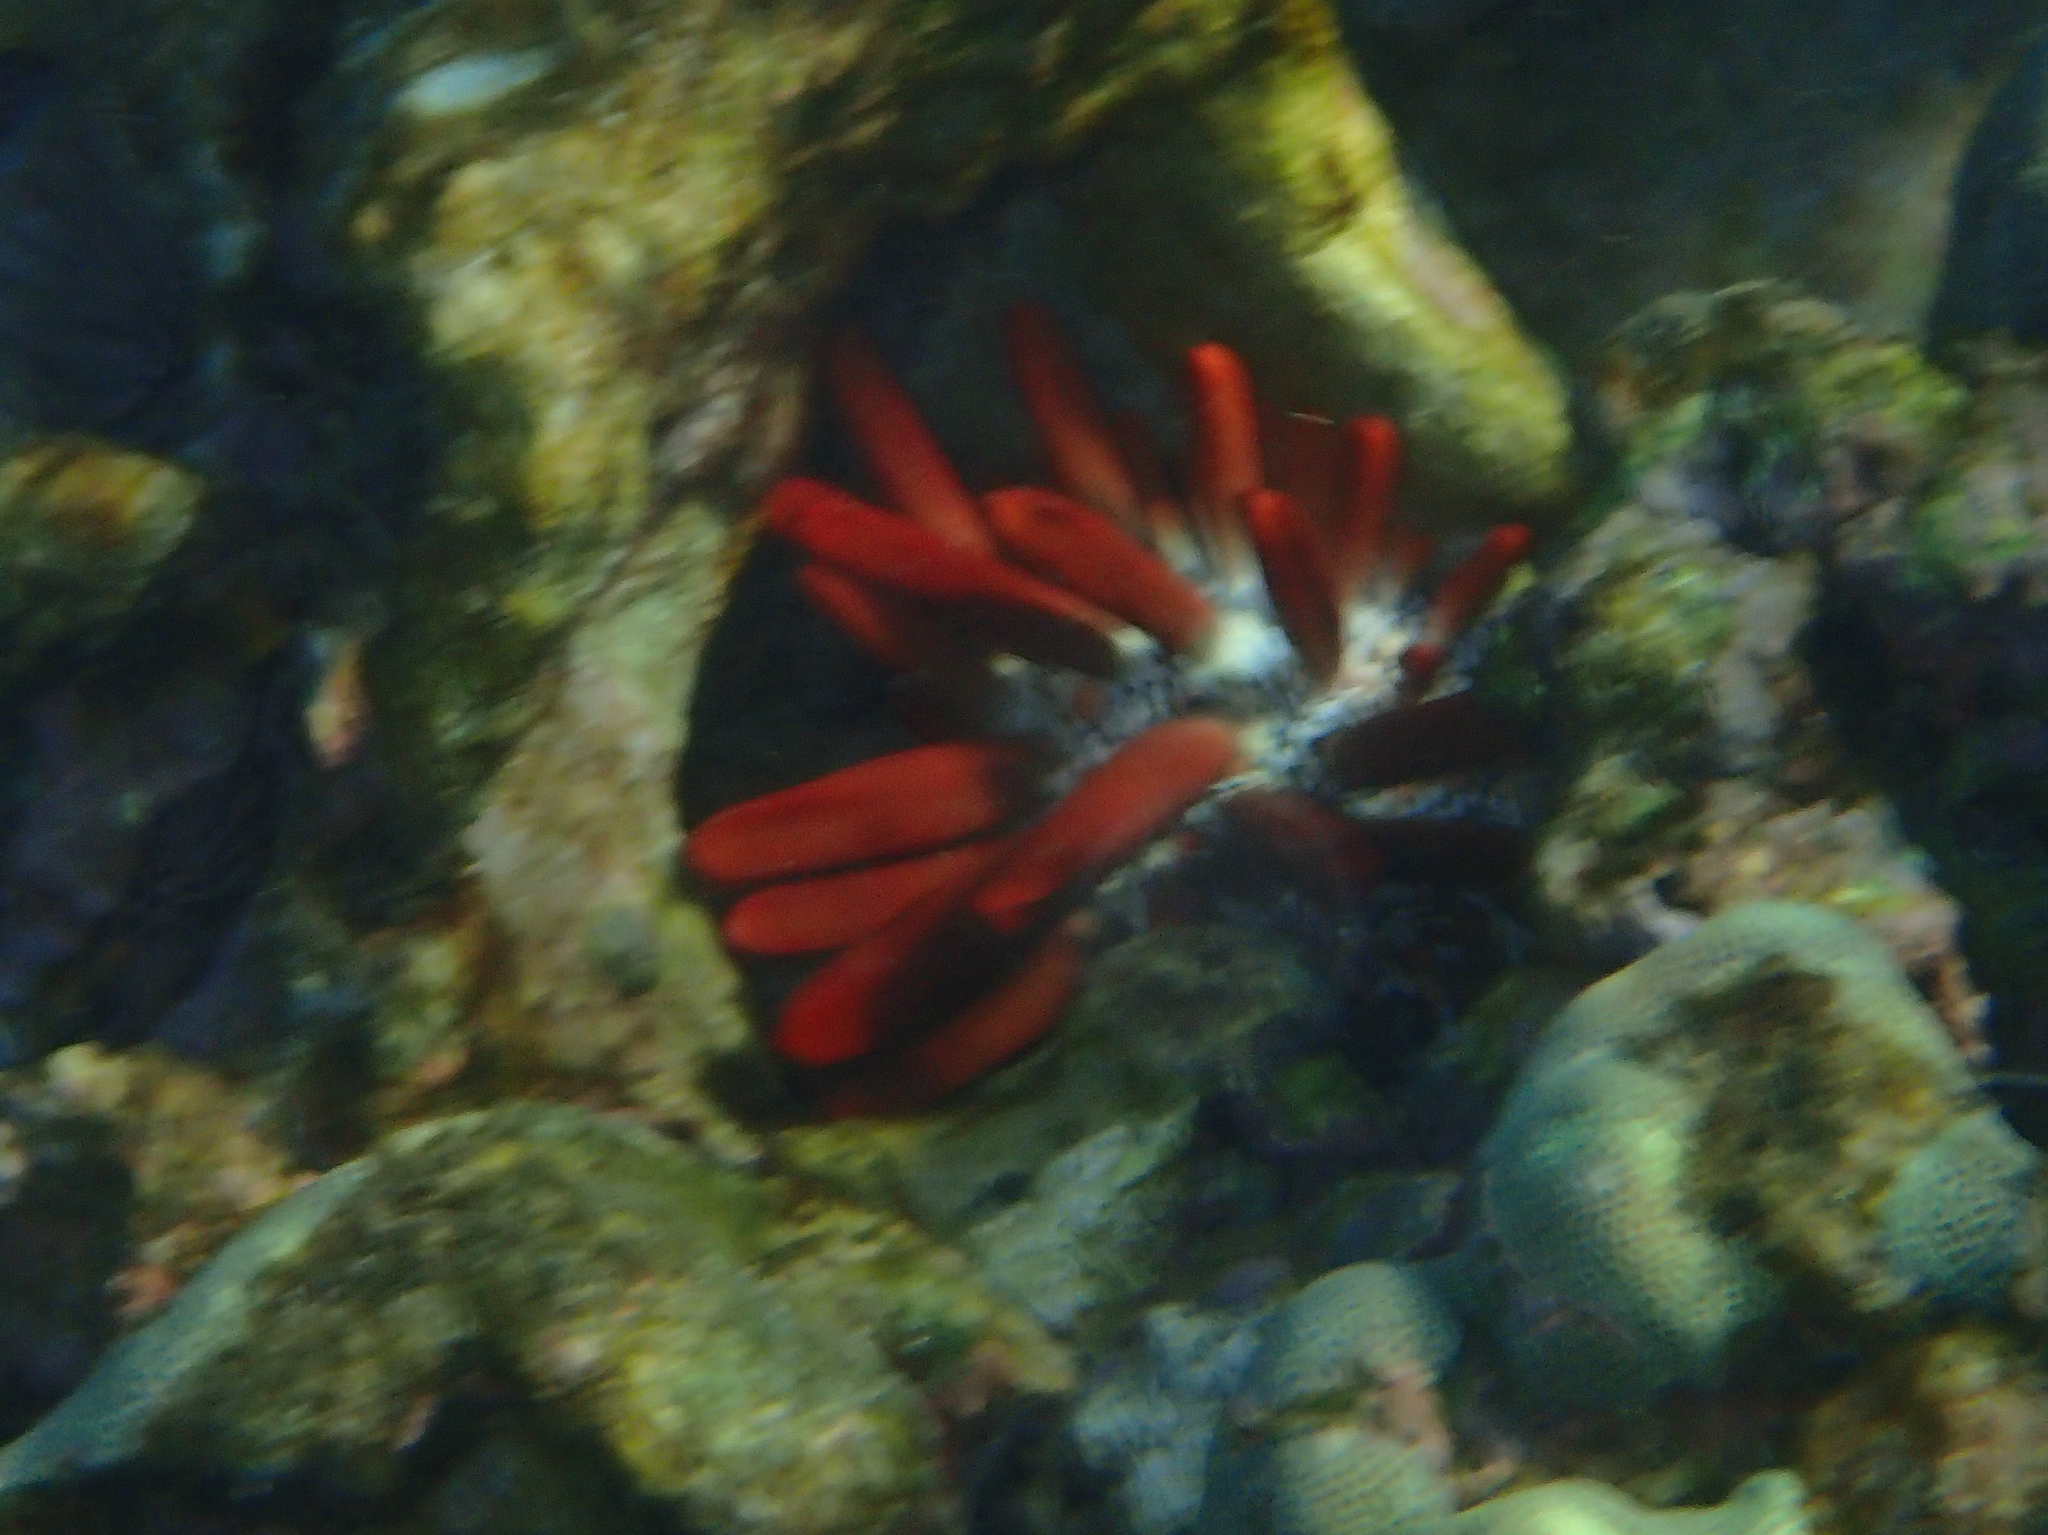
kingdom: Animalia
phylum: Echinodermata
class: Echinoidea
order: Camarodonta
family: Echinometridae
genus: Heterocentrotus
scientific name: Heterocentrotus mamillatus
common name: Slate pencil urchin
